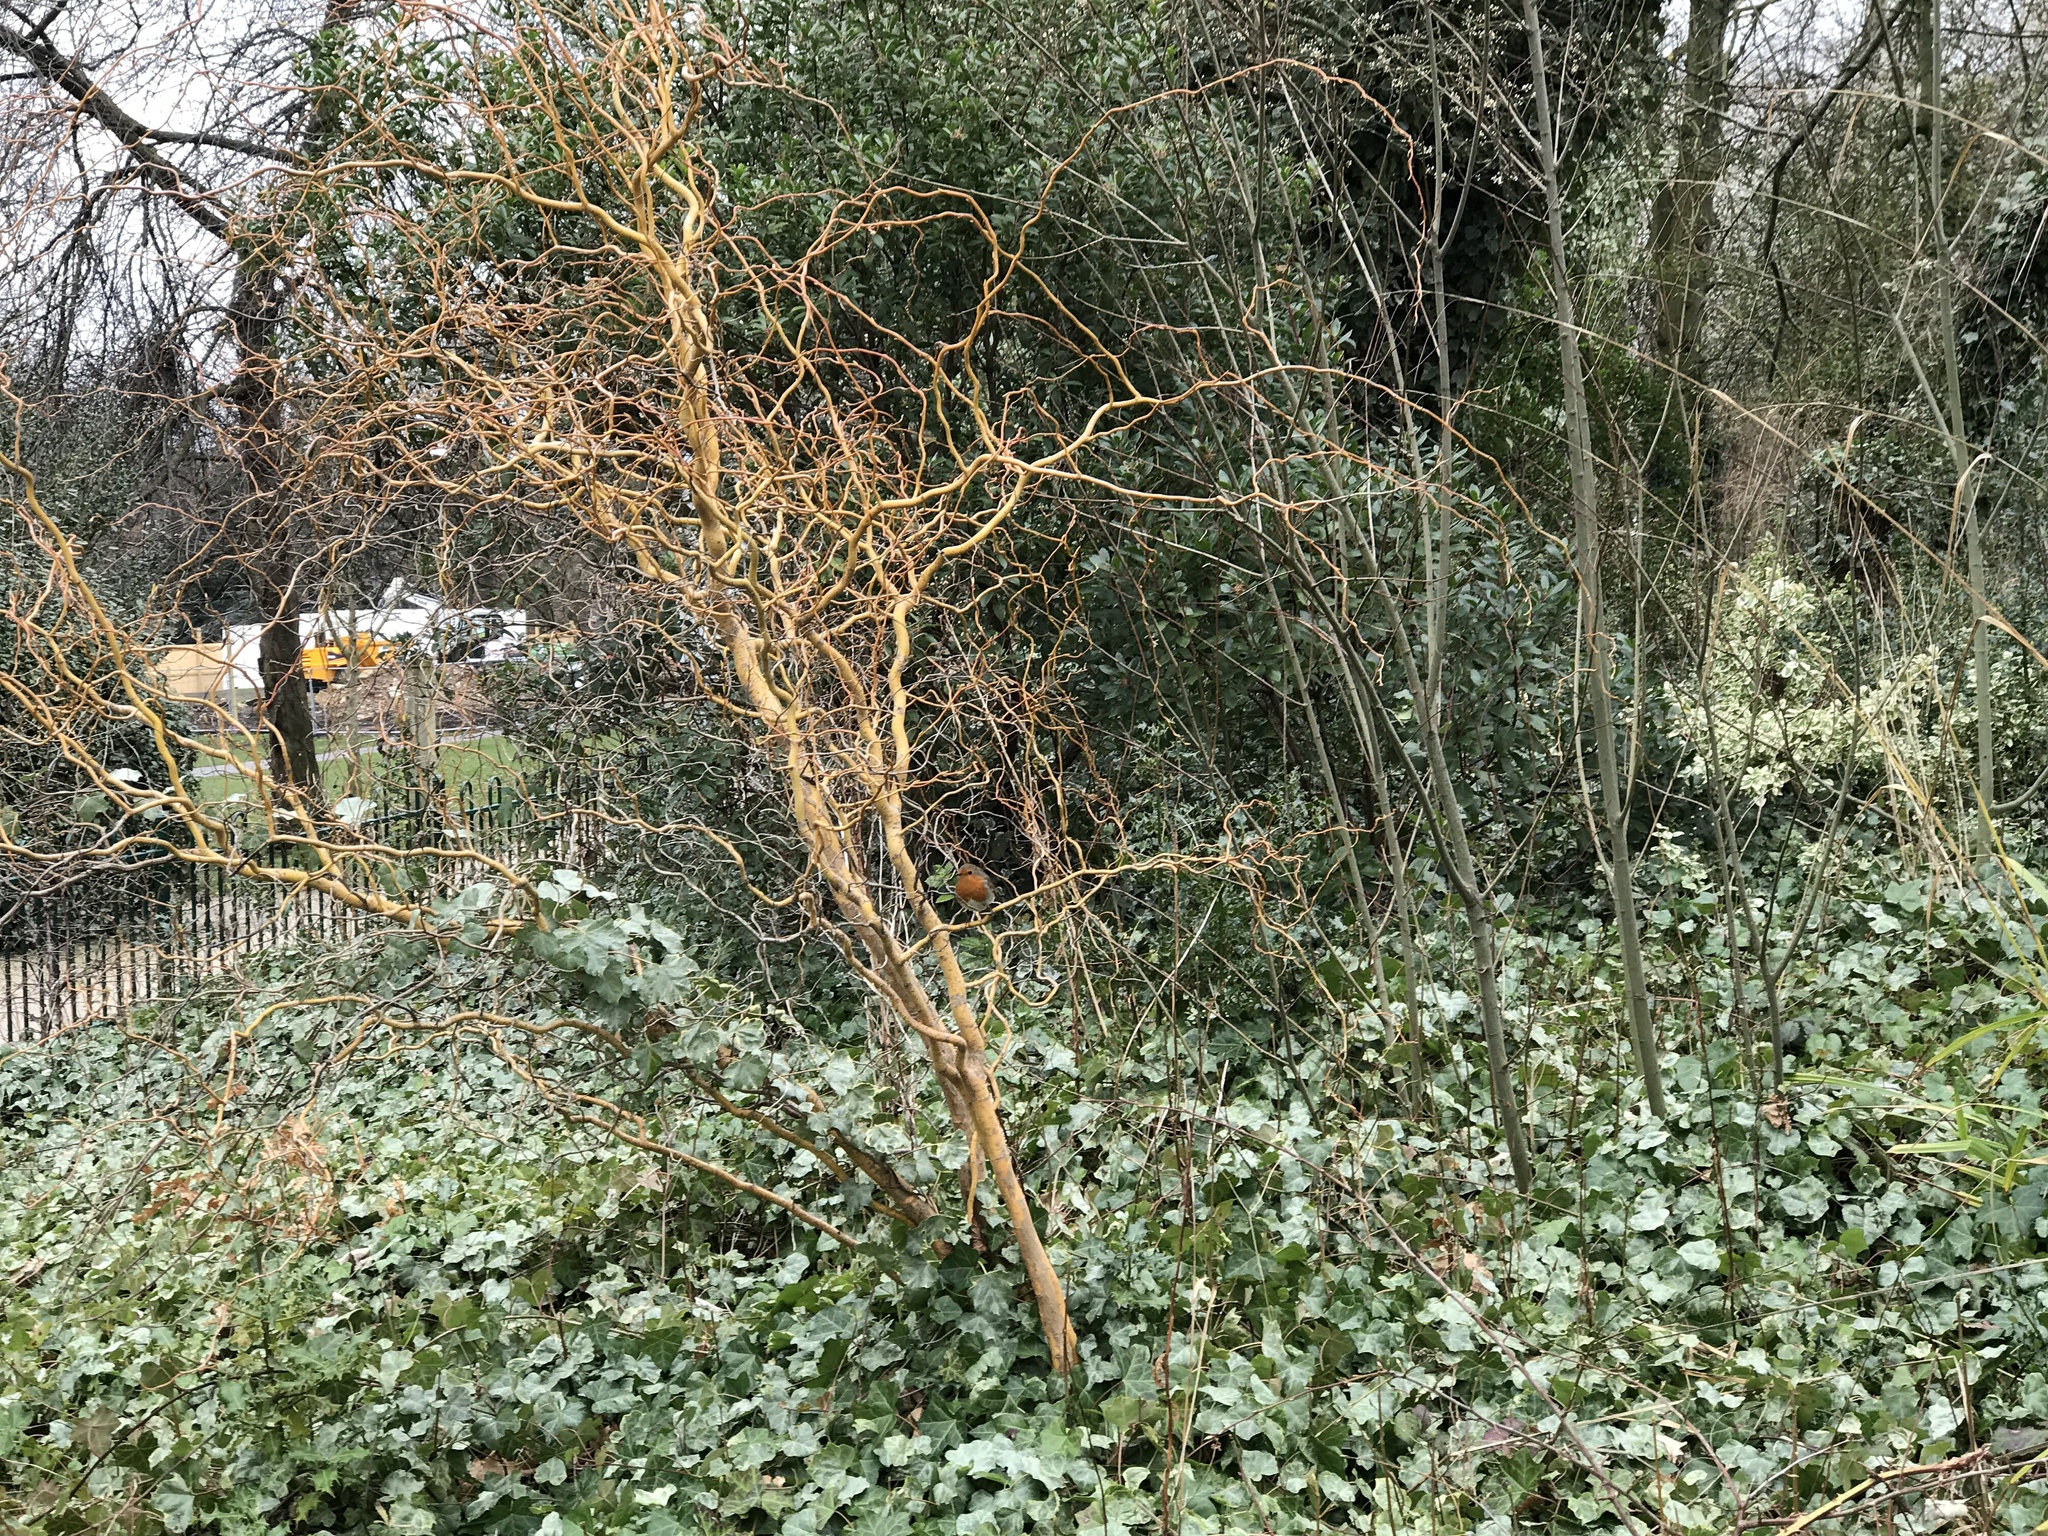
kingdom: Animalia
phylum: Chordata
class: Aves
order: Passeriformes
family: Muscicapidae
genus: Erithacus
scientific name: Erithacus rubecula
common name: European robin
